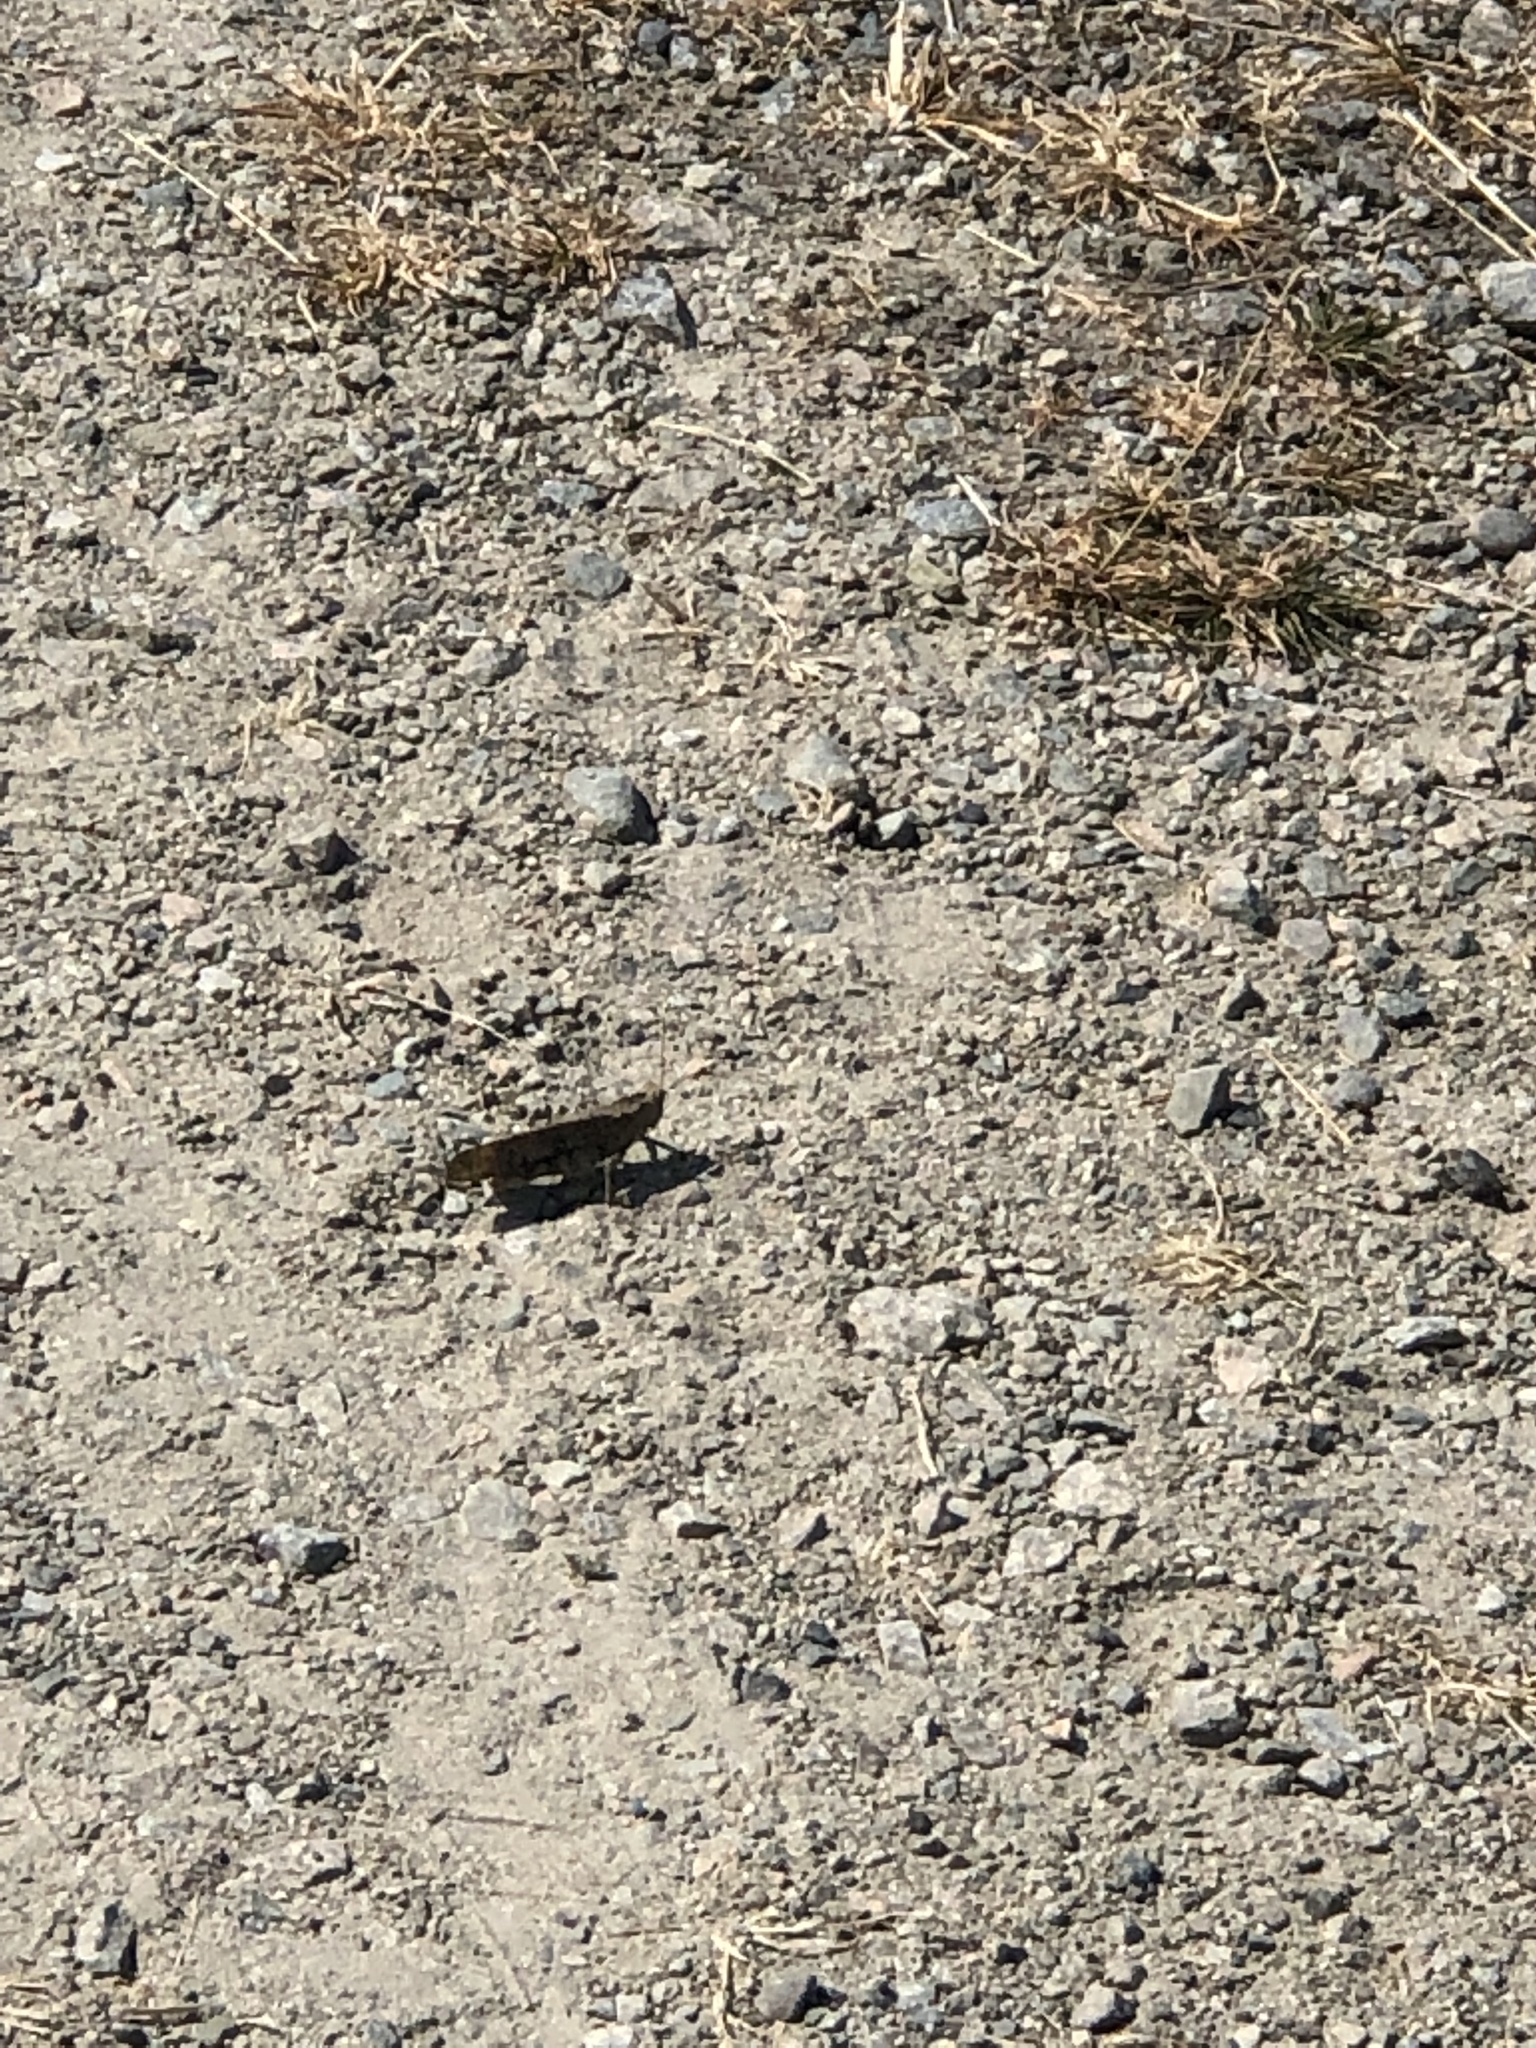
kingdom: Animalia
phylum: Arthropoda
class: Insecta
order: Orthoptera
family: Acrididae
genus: Dissosteira
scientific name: Dissosteira carolina
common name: Carolina grasshopper
